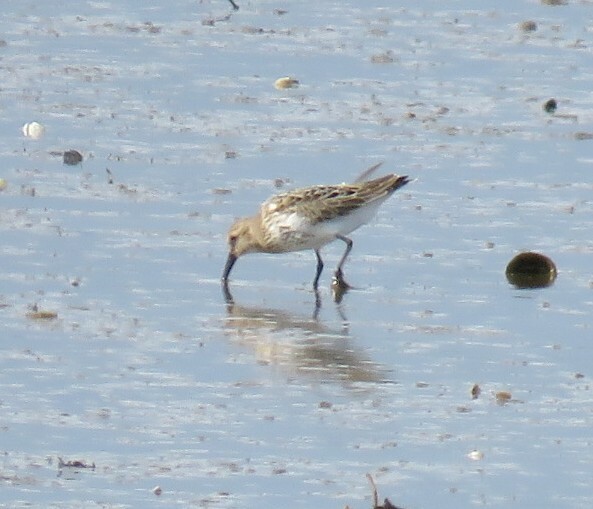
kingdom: Animalia
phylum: Chordata
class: Aves
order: Charadriiformes
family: Scolopacidae
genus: Calidris
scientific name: Calidris alpina
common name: Dunlin
